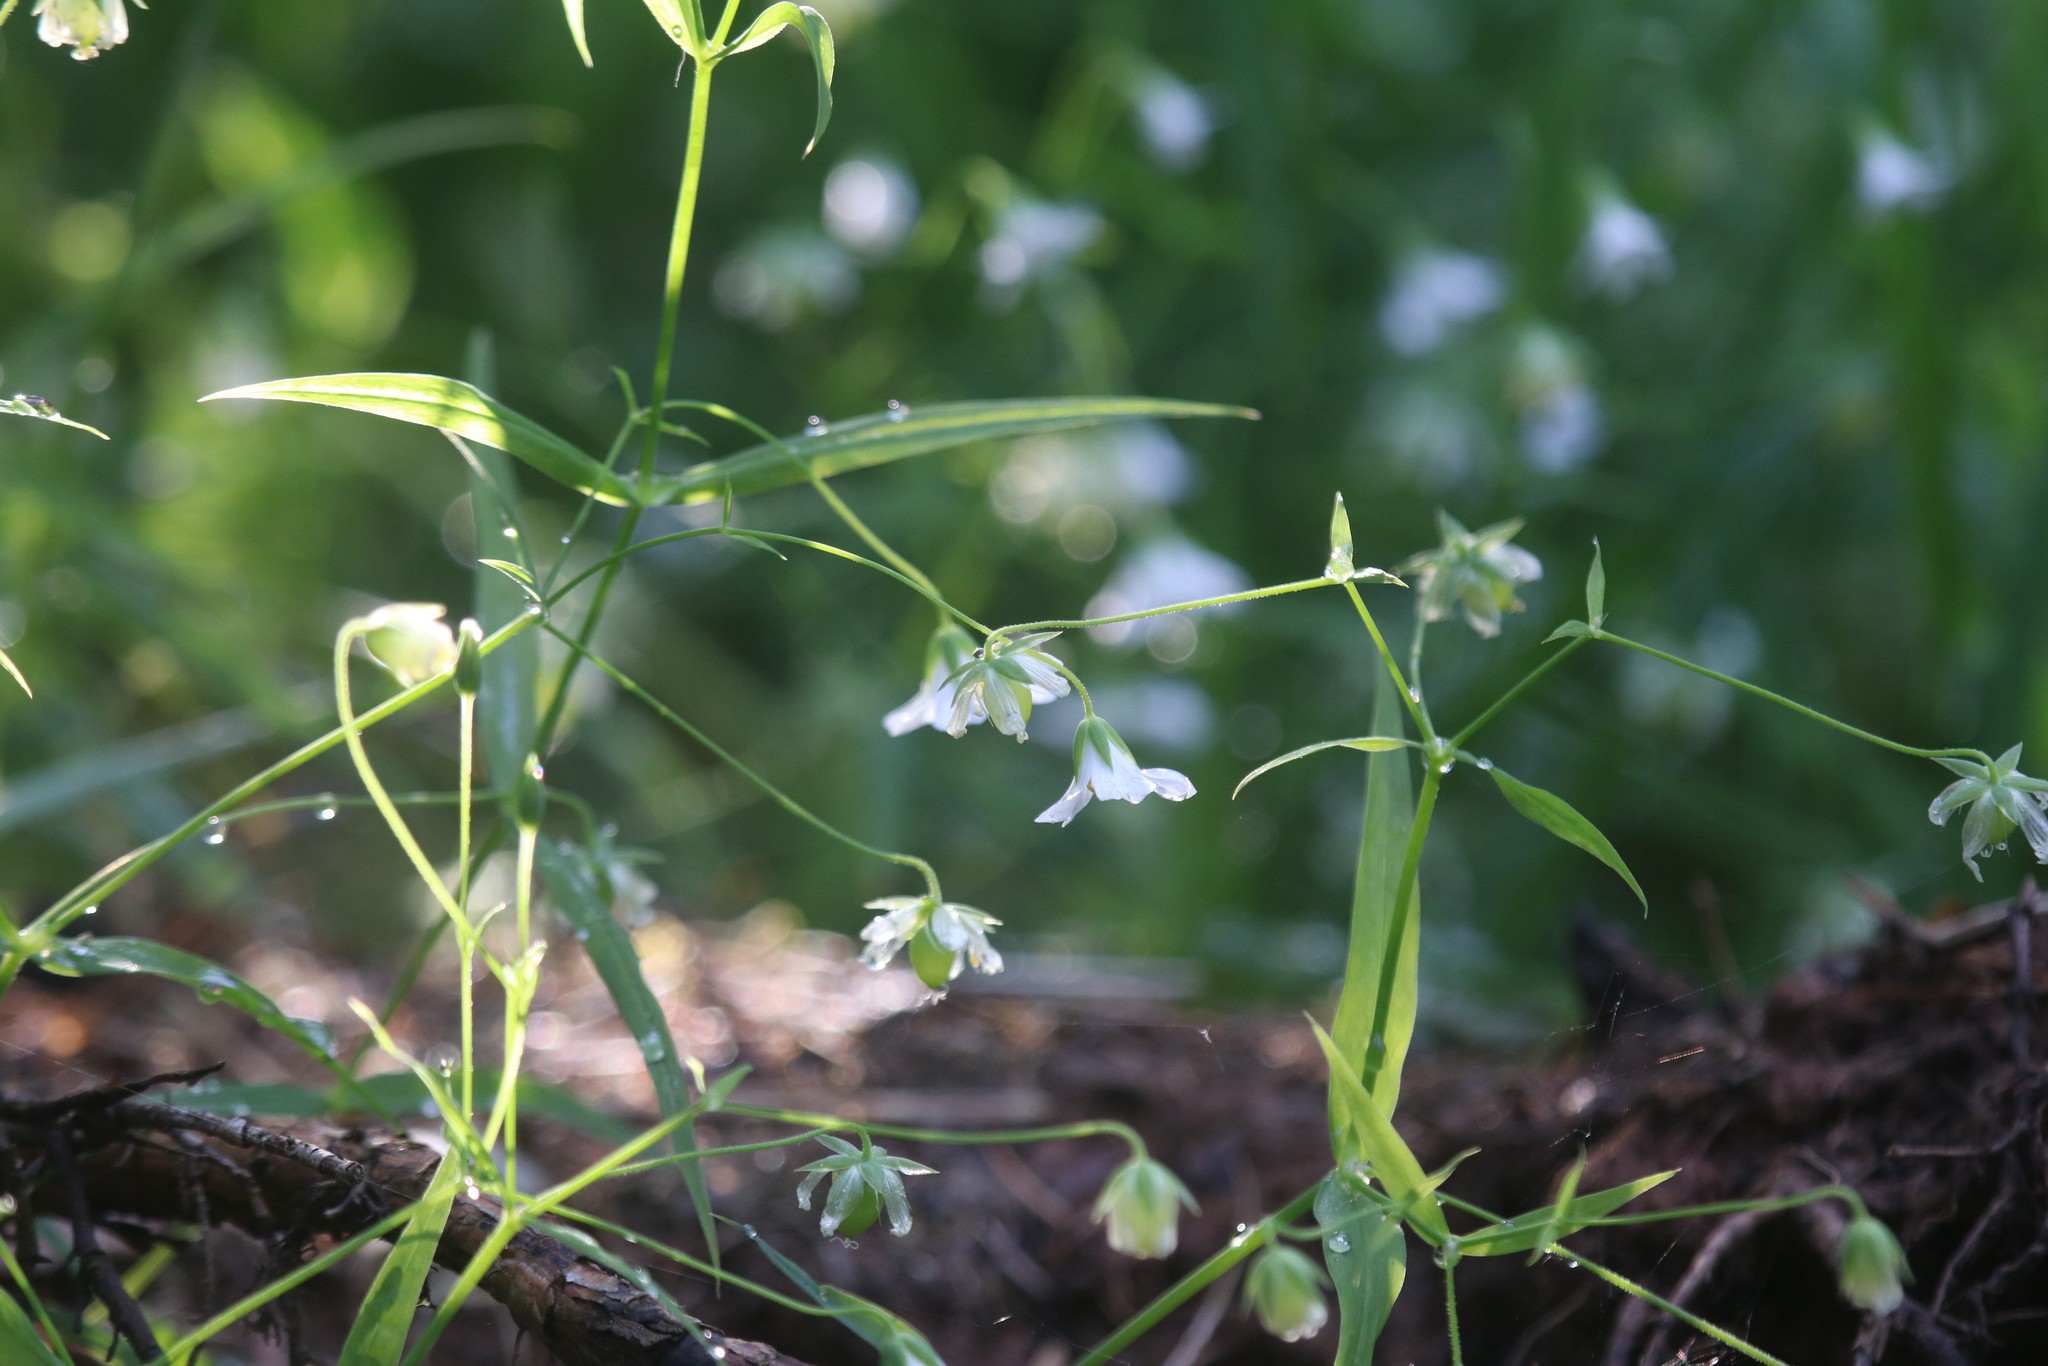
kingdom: Plantae
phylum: Tracheophyta
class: Magnoliopsida
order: Caryophyllales
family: Caryophyllaceae
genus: Rabelera
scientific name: Rabelera holostea
